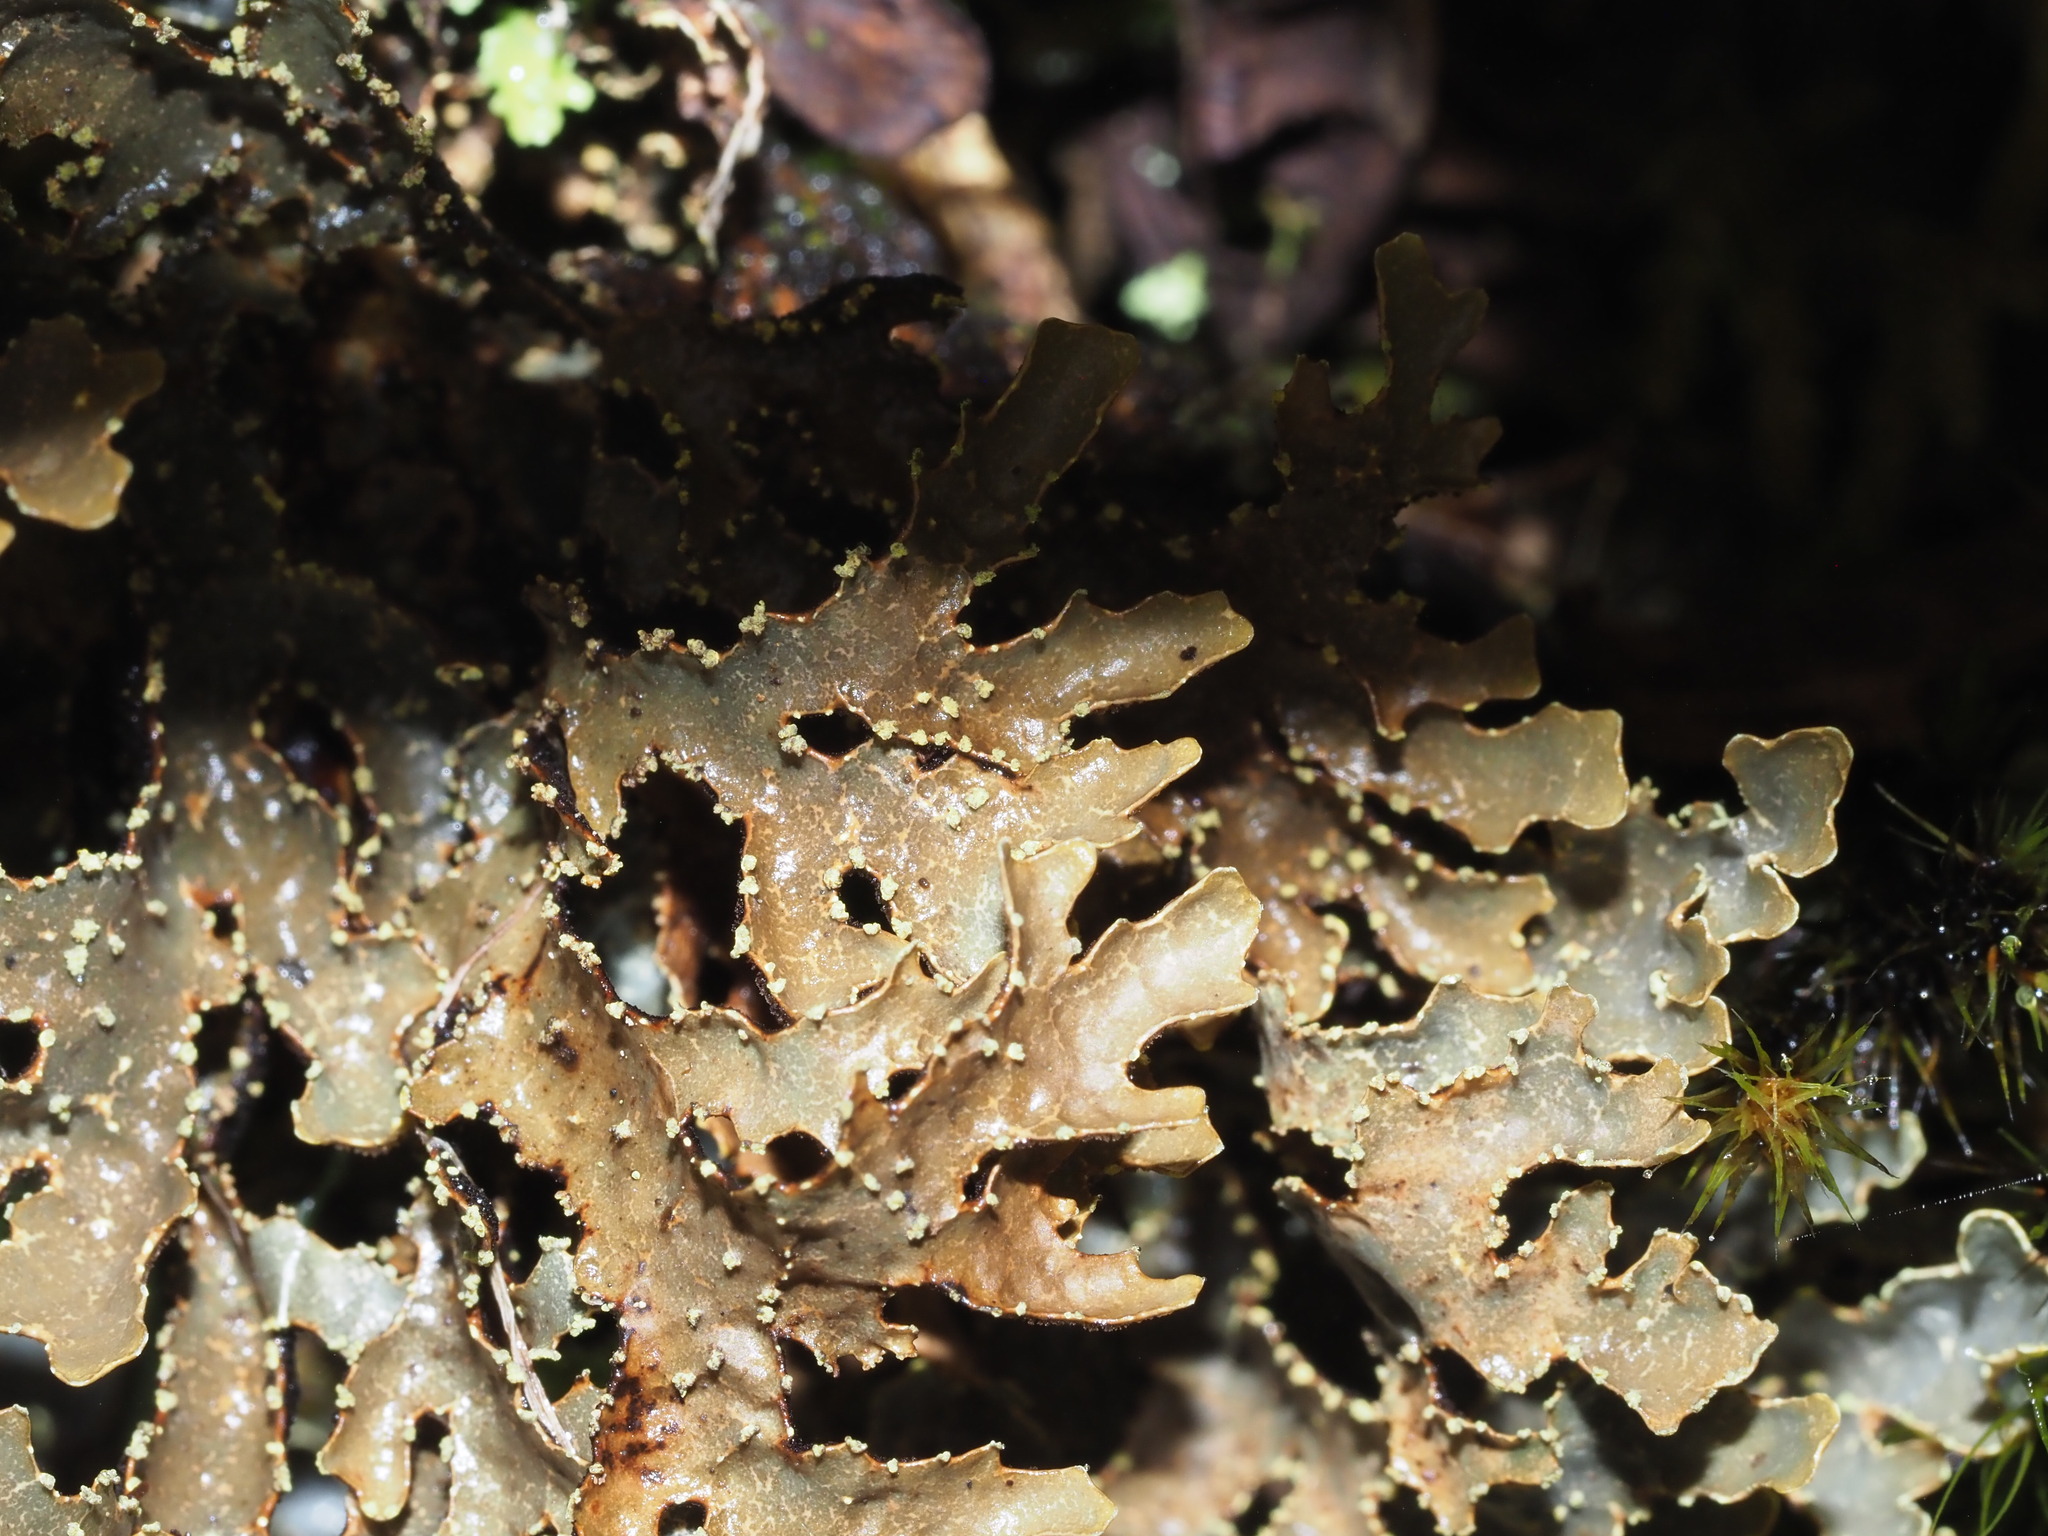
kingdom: Fungi
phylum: Ascomycota
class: Lecanoromycetes
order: Peltigerales
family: Lobariaceae
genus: Pseudocyphellaria
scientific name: Pseudocyphellaria hawaiiensis
